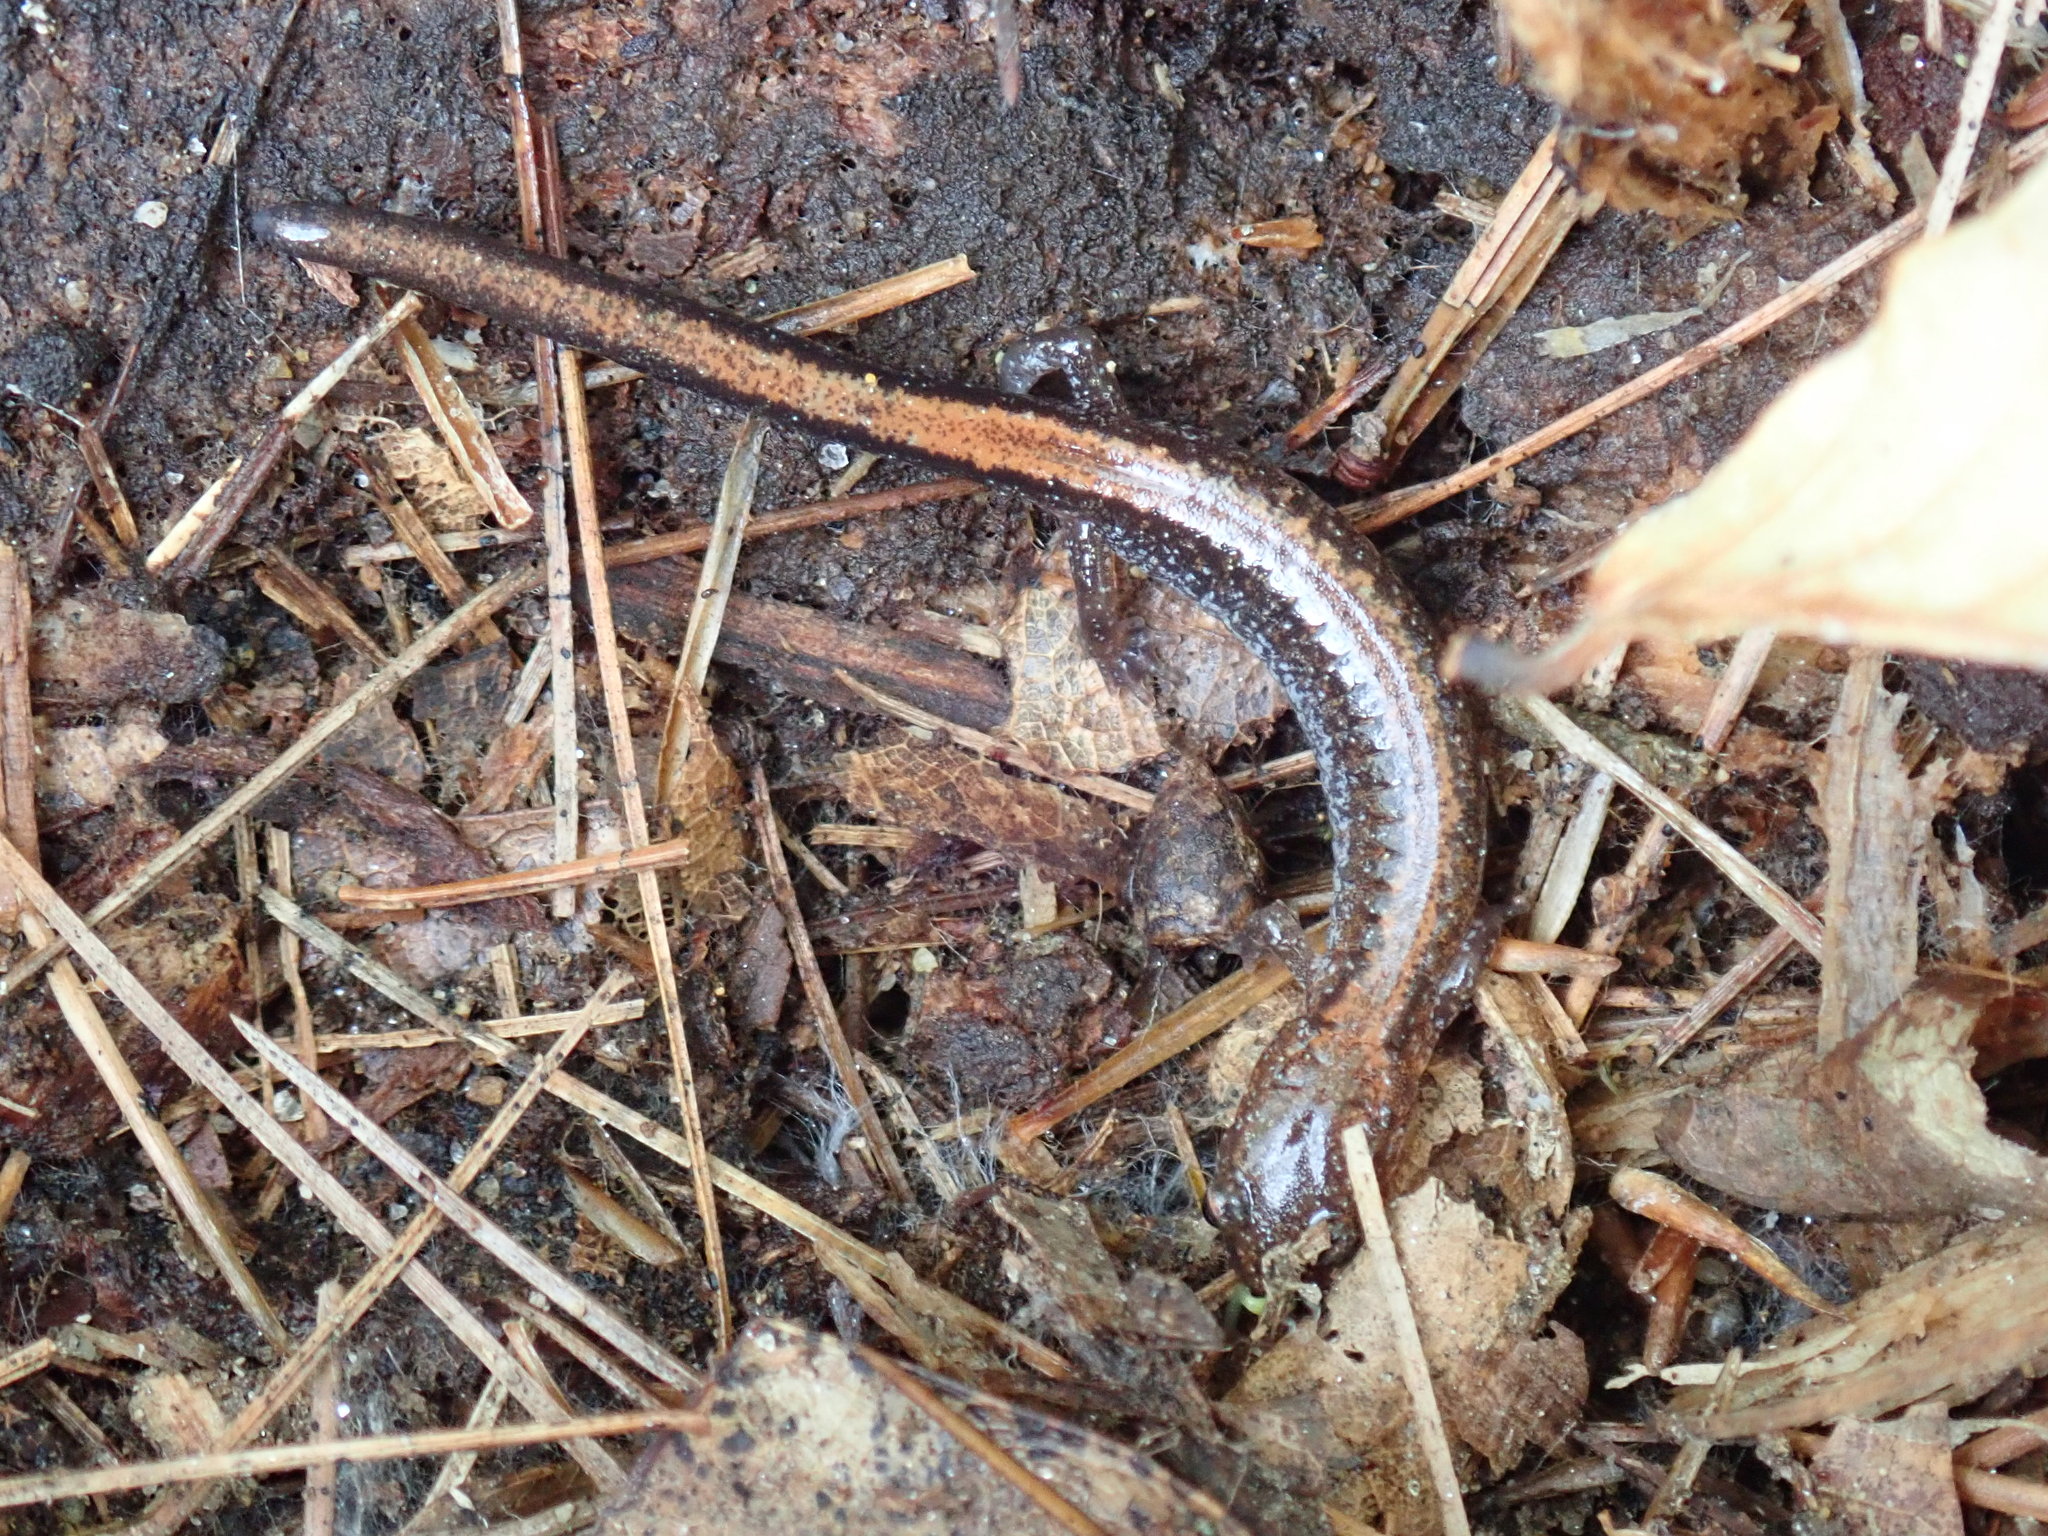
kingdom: Animalia
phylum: Chordata
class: Amphibia
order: Caudata
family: Plethodontidae
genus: Plethodon
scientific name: Plethodon cinereus
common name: Redback salamander
